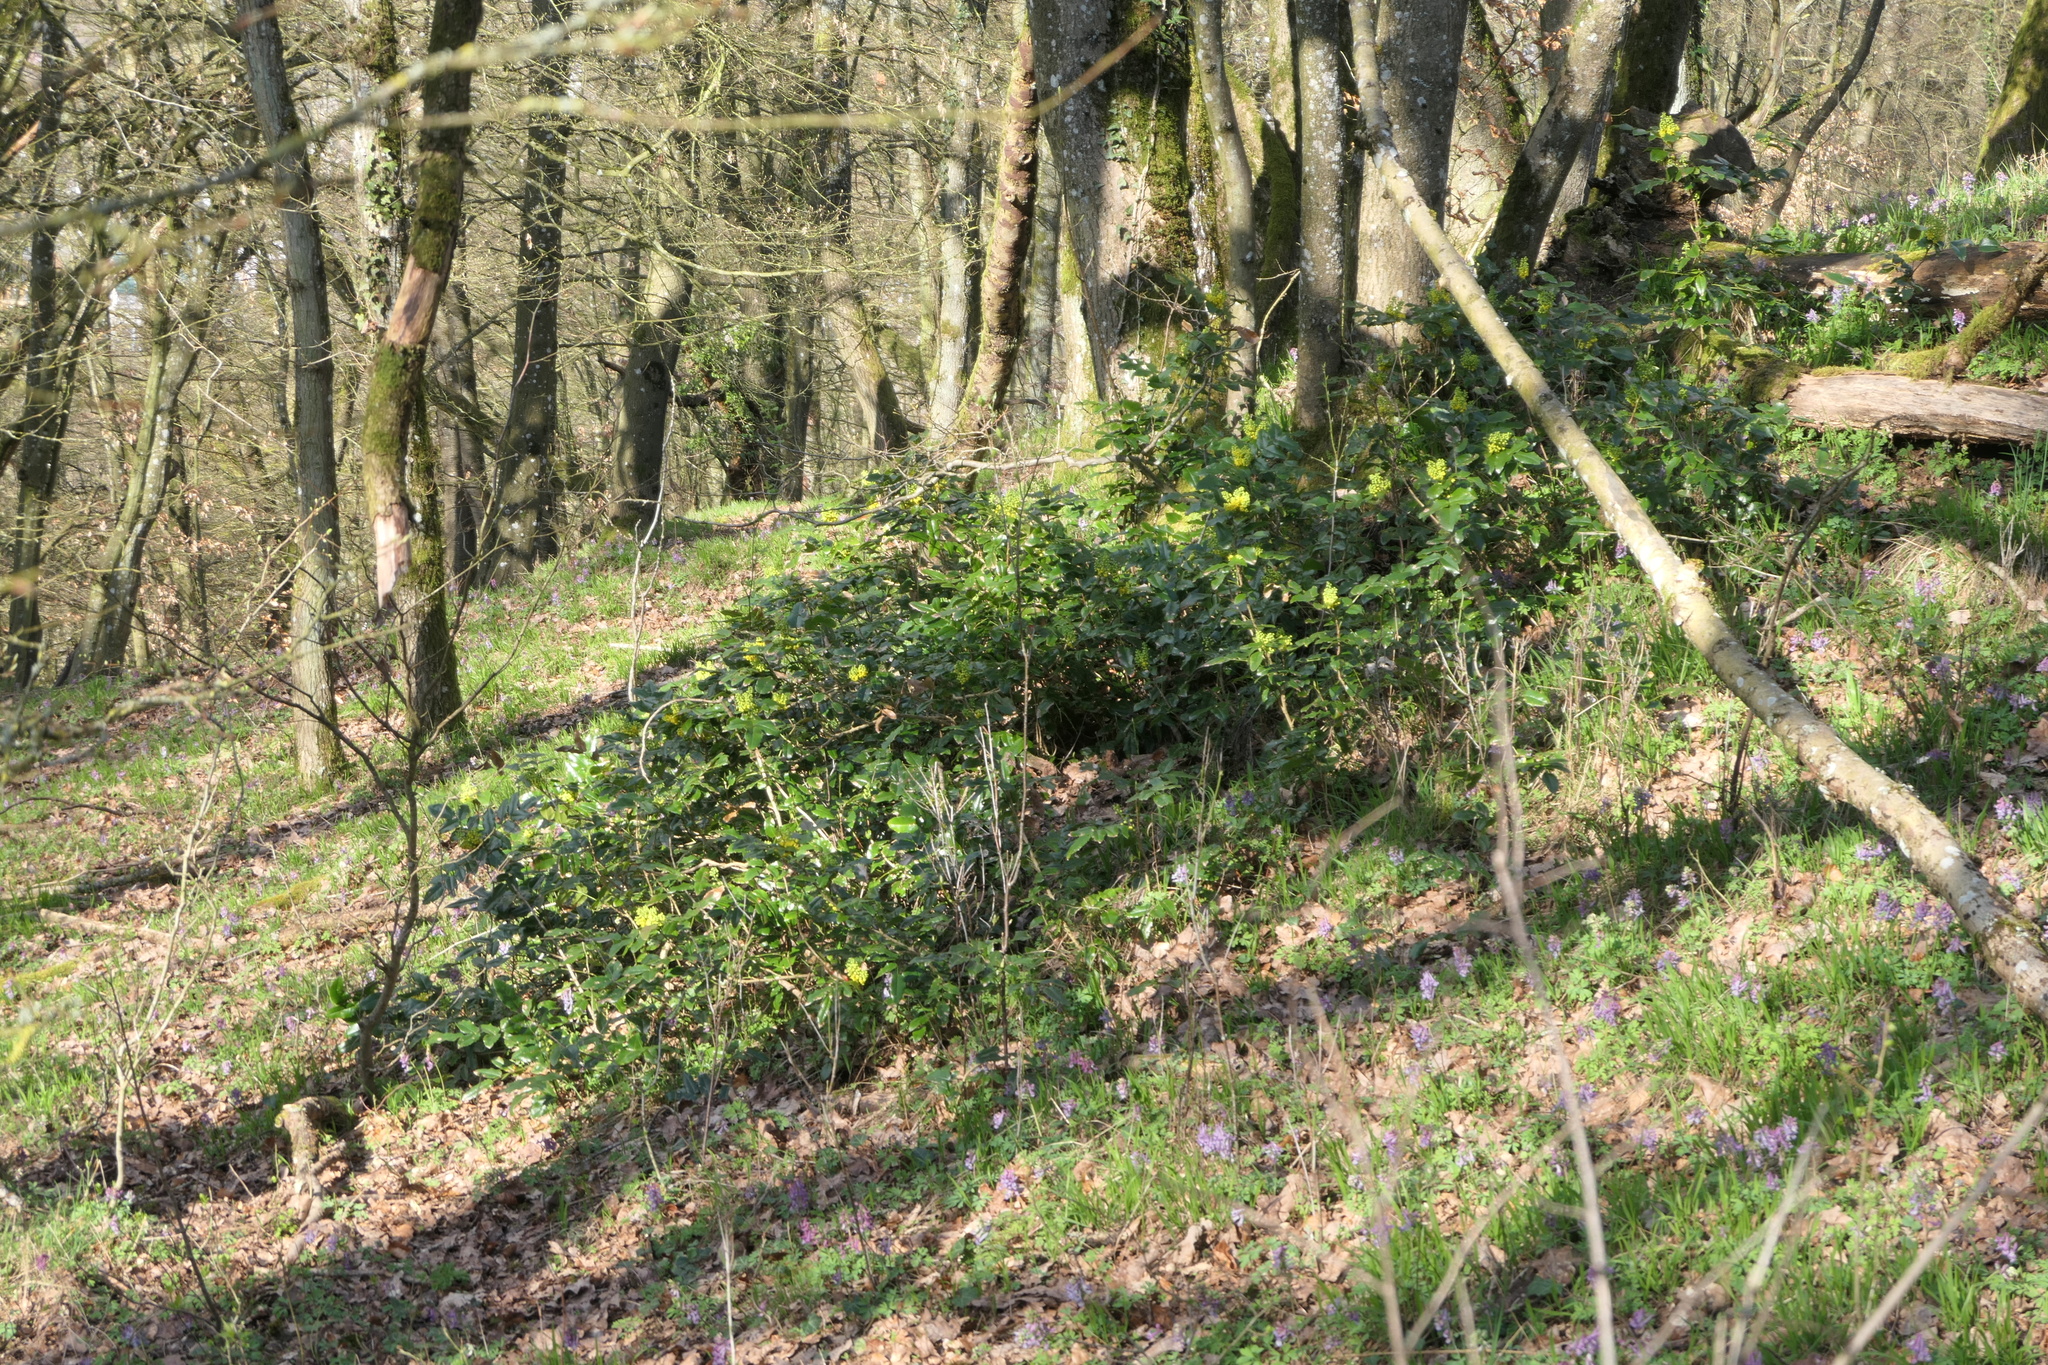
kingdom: Plantae
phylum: Tracheophyta
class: Magnoliopsida
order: Ranunculales
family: Berberidaceae
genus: Mahonia
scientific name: Mahonia aquifolium
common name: Oregon-grape
